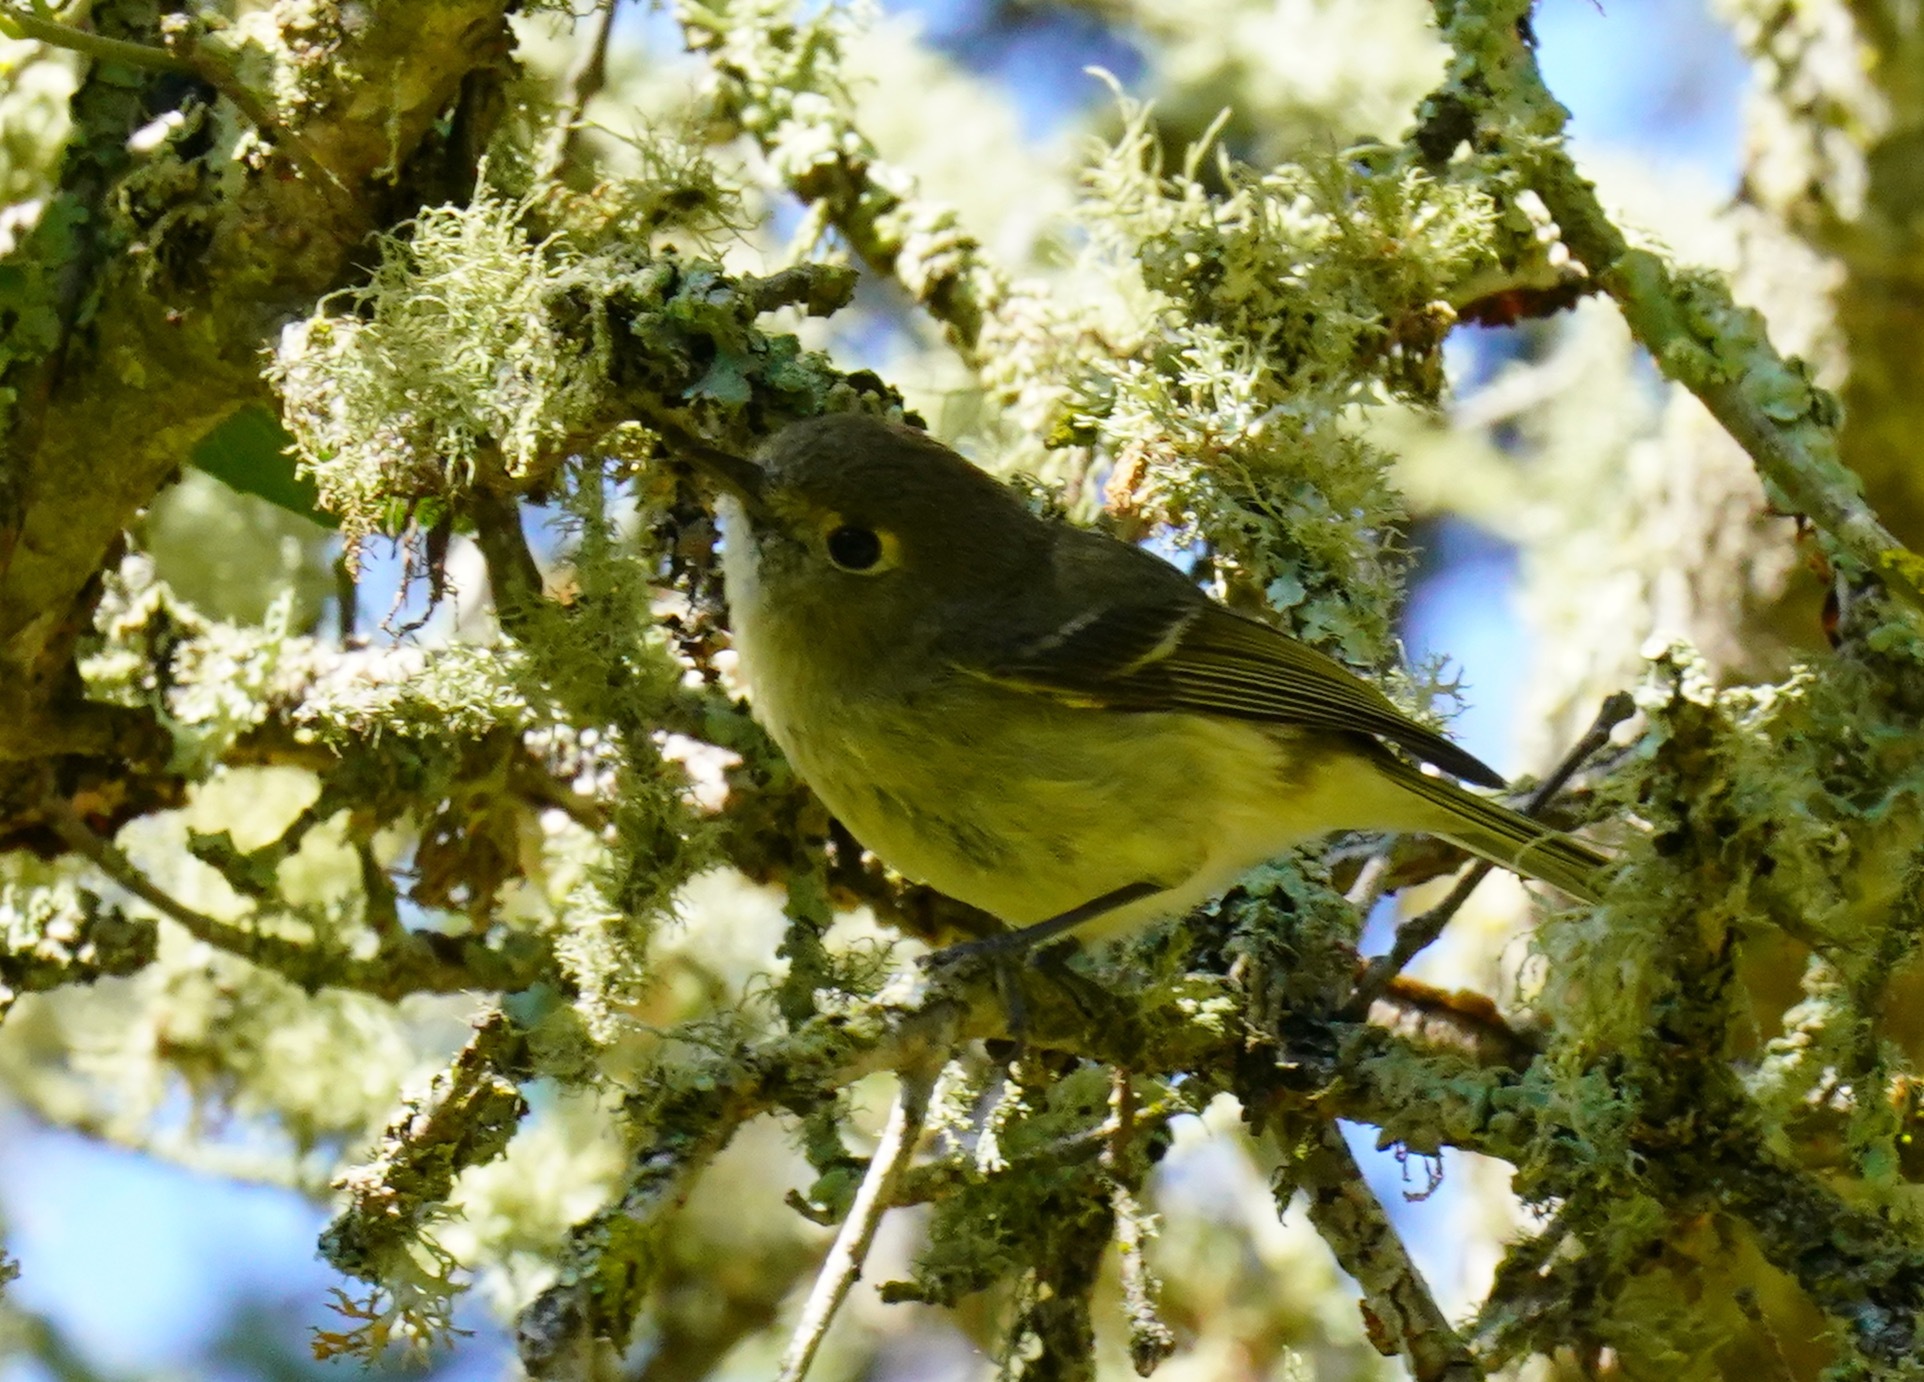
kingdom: Animalia
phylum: Chordata
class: Aves
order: Passeriformes
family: Vireonidae
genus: Vireo
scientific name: Vireo huttoni
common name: Hutton's vireo
